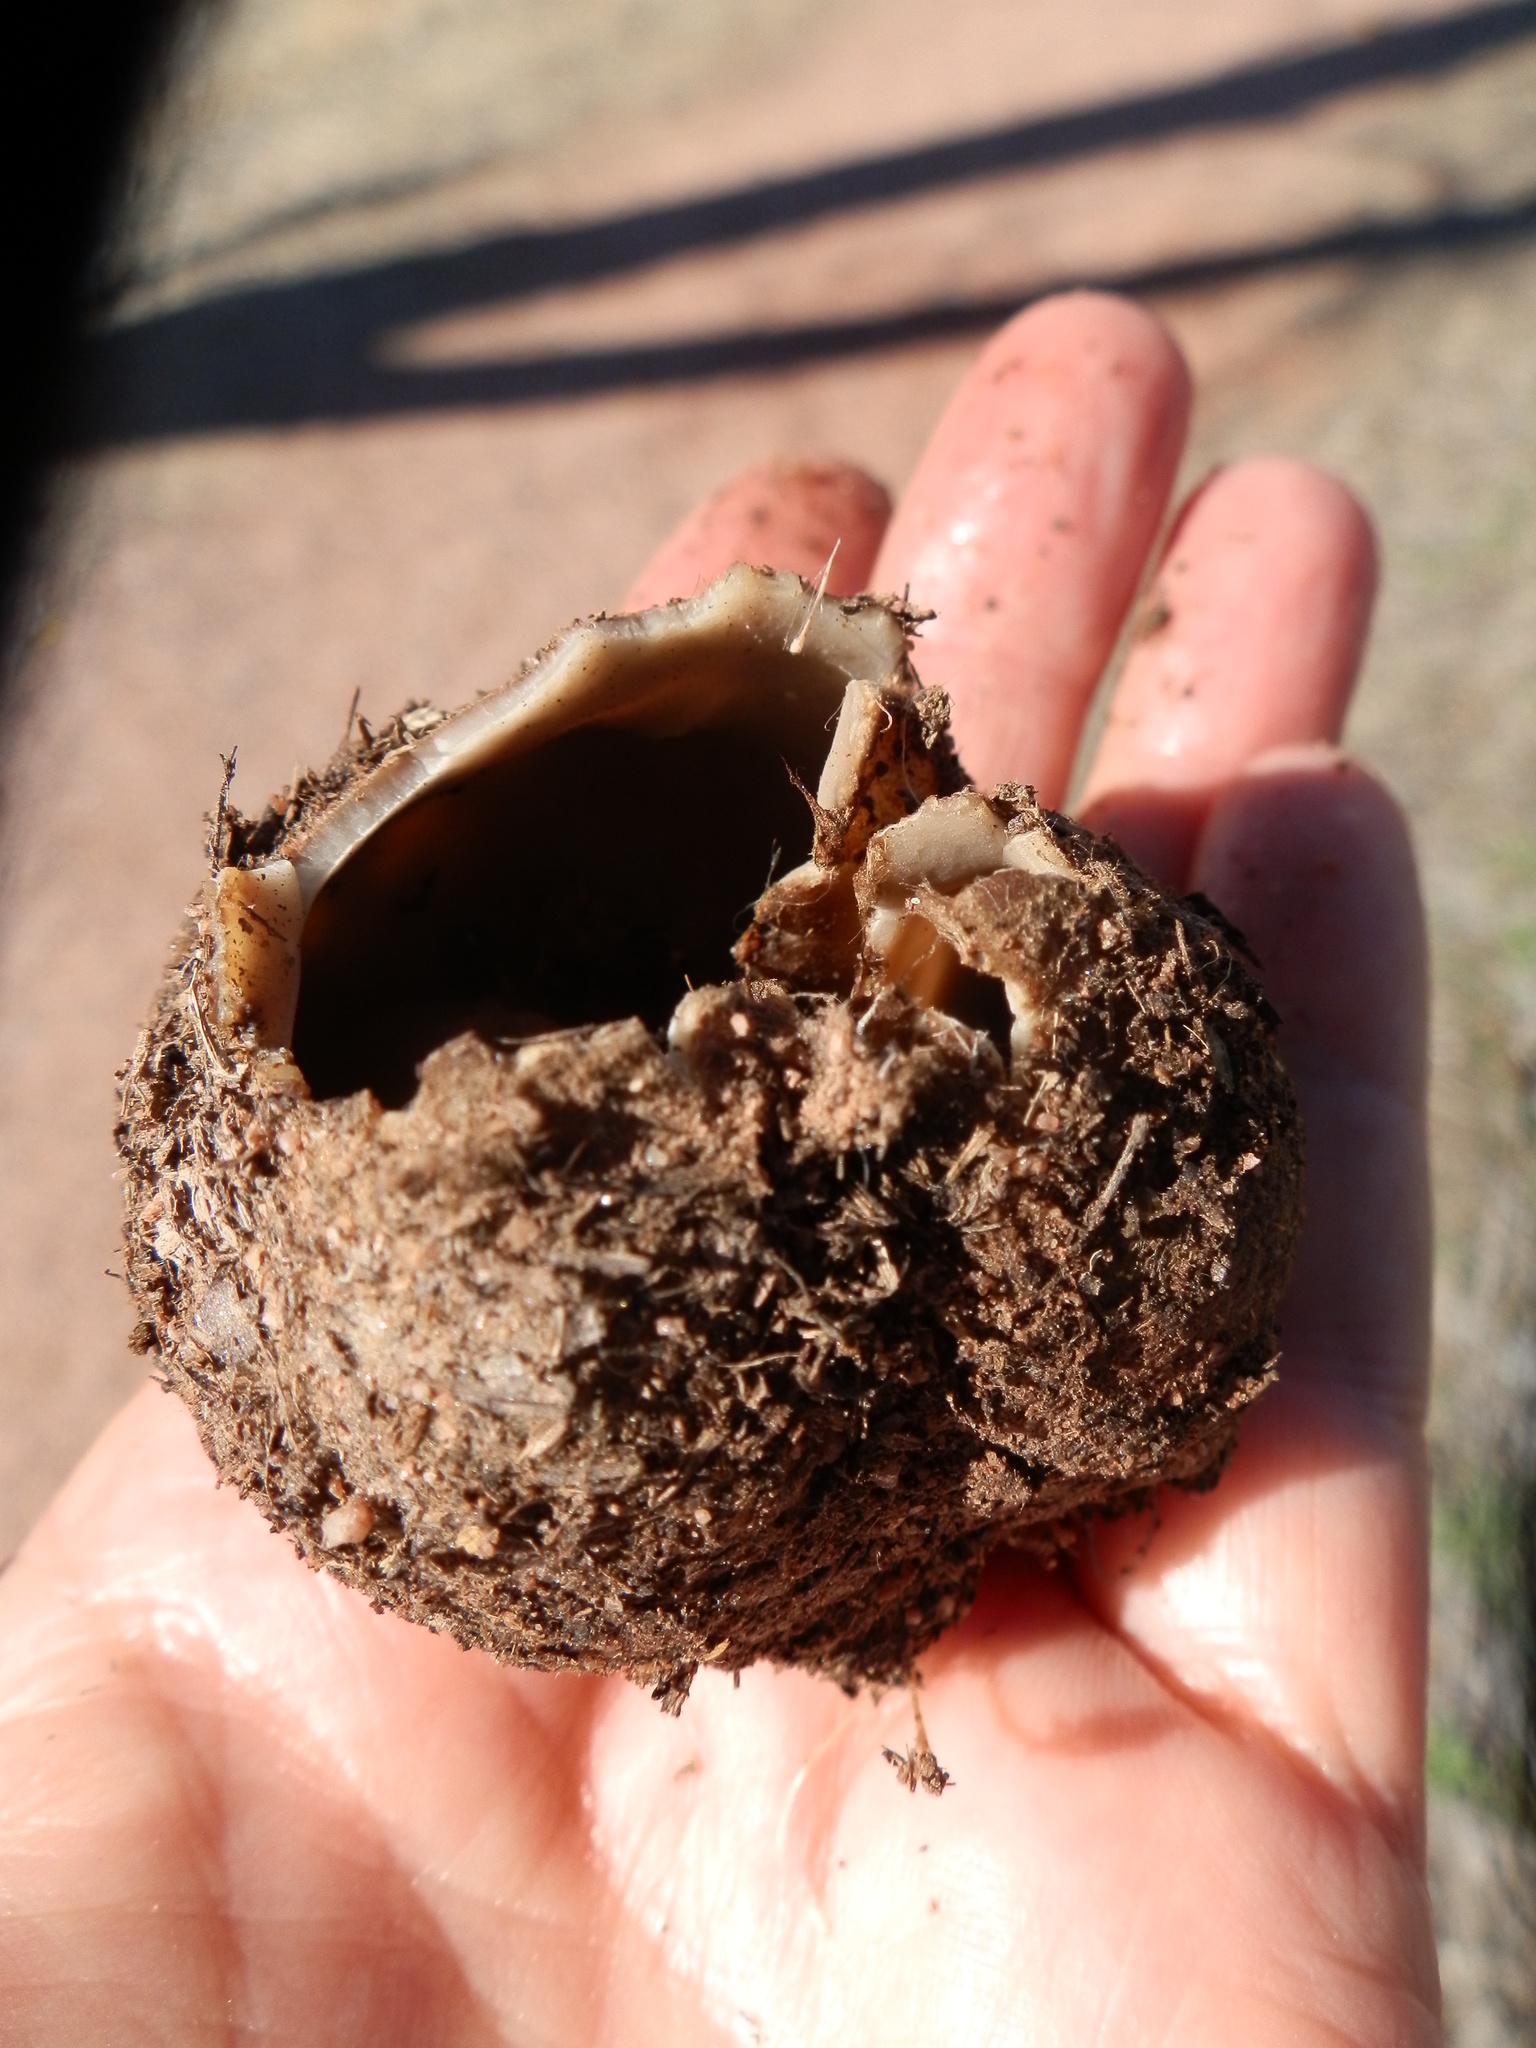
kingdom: Fungi
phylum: Ascomycota
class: Pezizomycetes
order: Pezizales
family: Pyronemataceae
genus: Geopora
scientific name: Geopora arenicola
